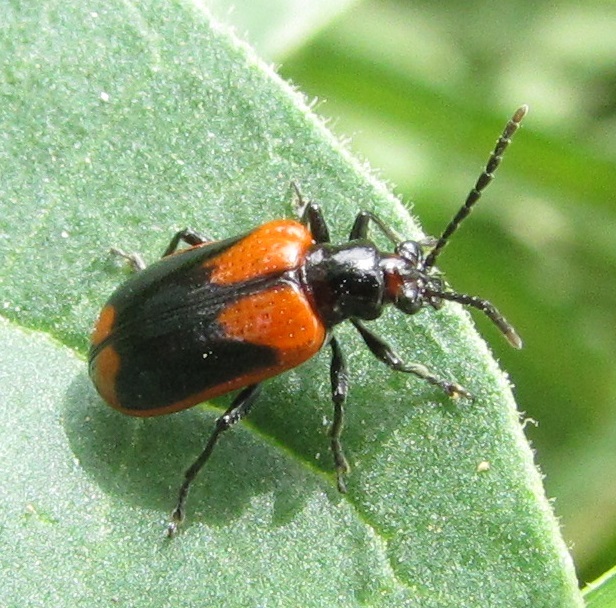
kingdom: Animalia
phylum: Arthropoda
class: Insecta
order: Coleoptera
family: Chrysomelidae
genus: Lema
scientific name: Lema confusa
